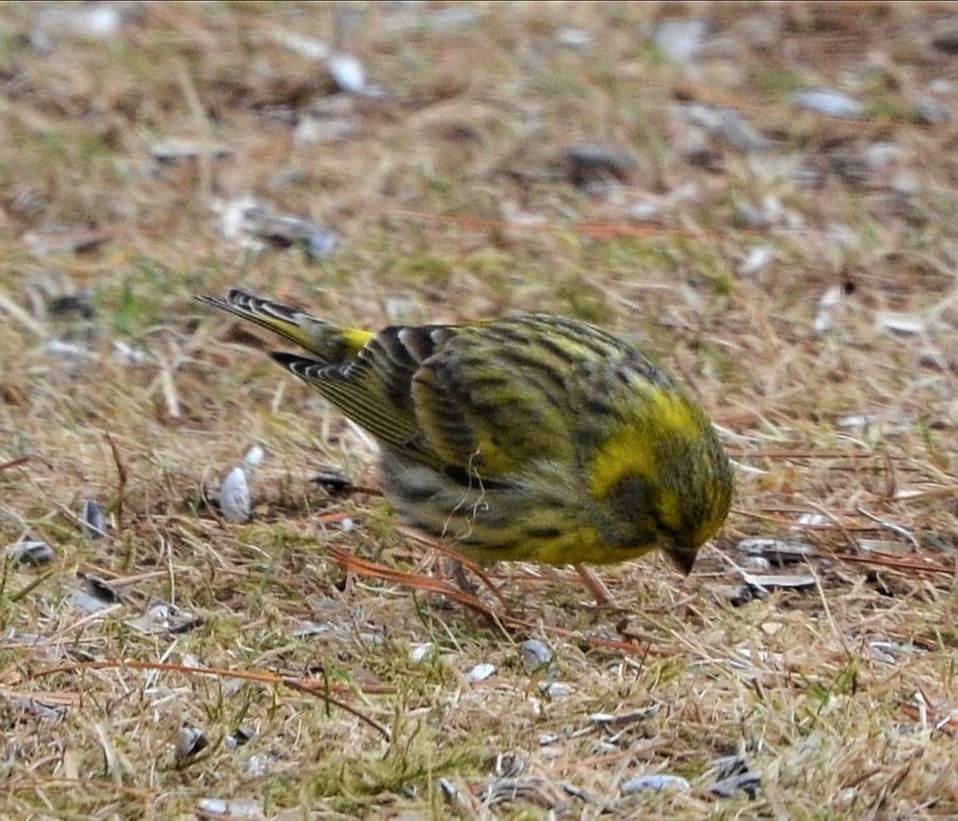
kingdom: Animalia
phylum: Chordata
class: Aves
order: Passeriformes
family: Fringillidae
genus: Serinus
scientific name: Serinus serinus
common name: European serin
